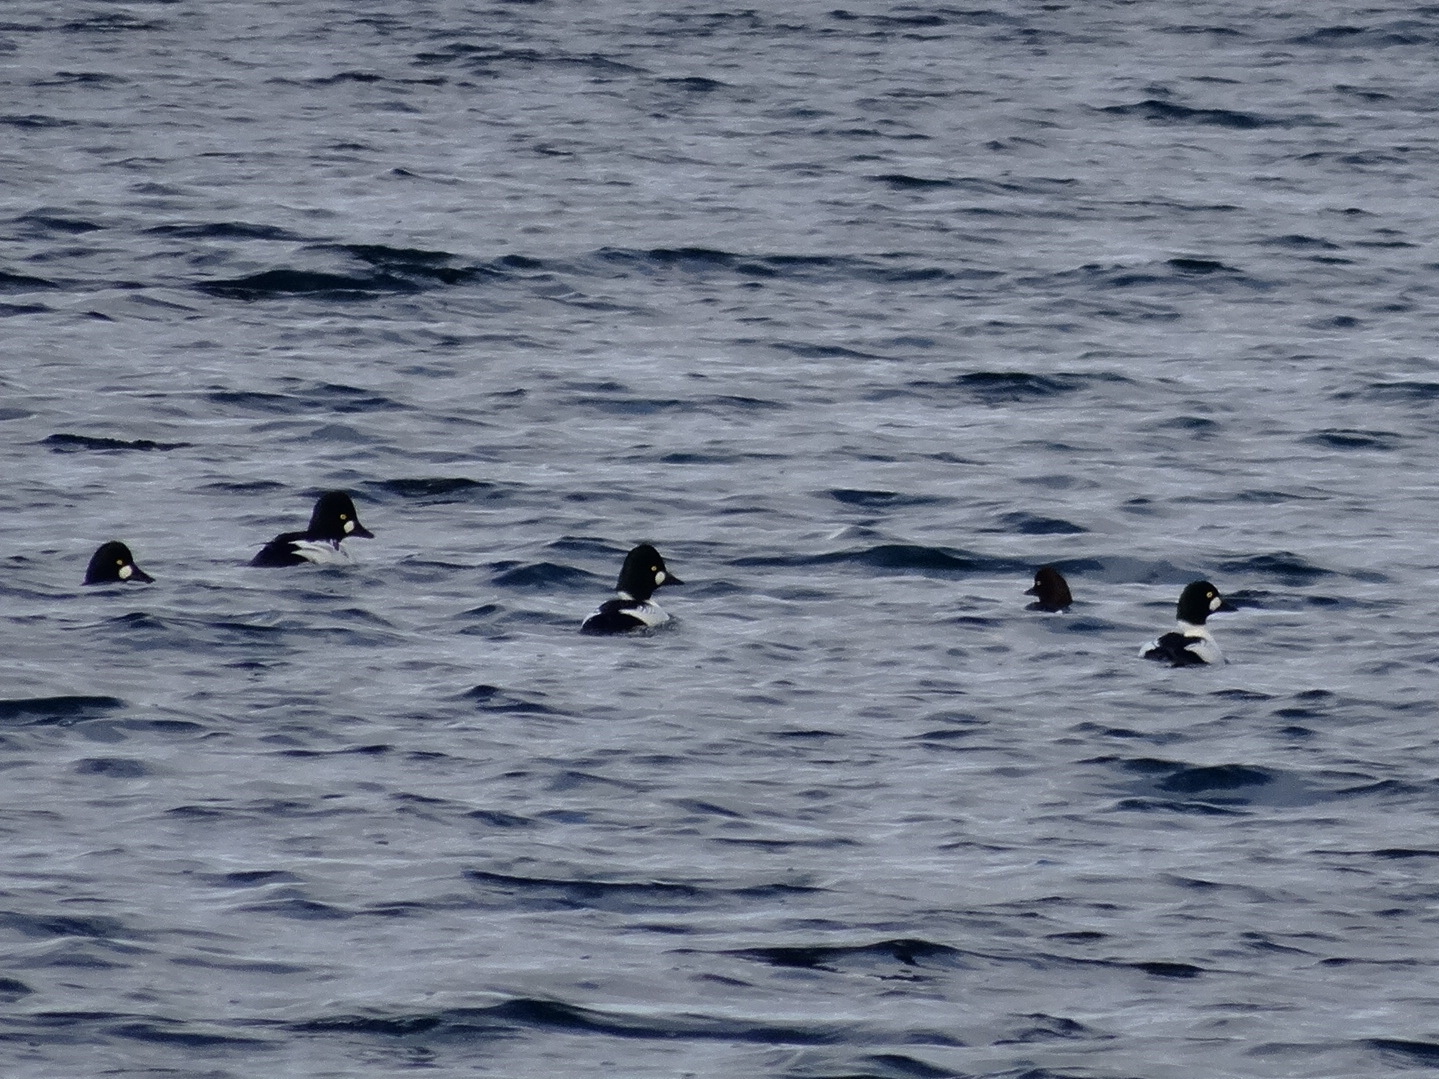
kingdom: Animalia
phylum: Chordata
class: Aves
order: Anseriformes
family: Anatidae
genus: Bucephala
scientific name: Bucephala clangula
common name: Common goldeneye
